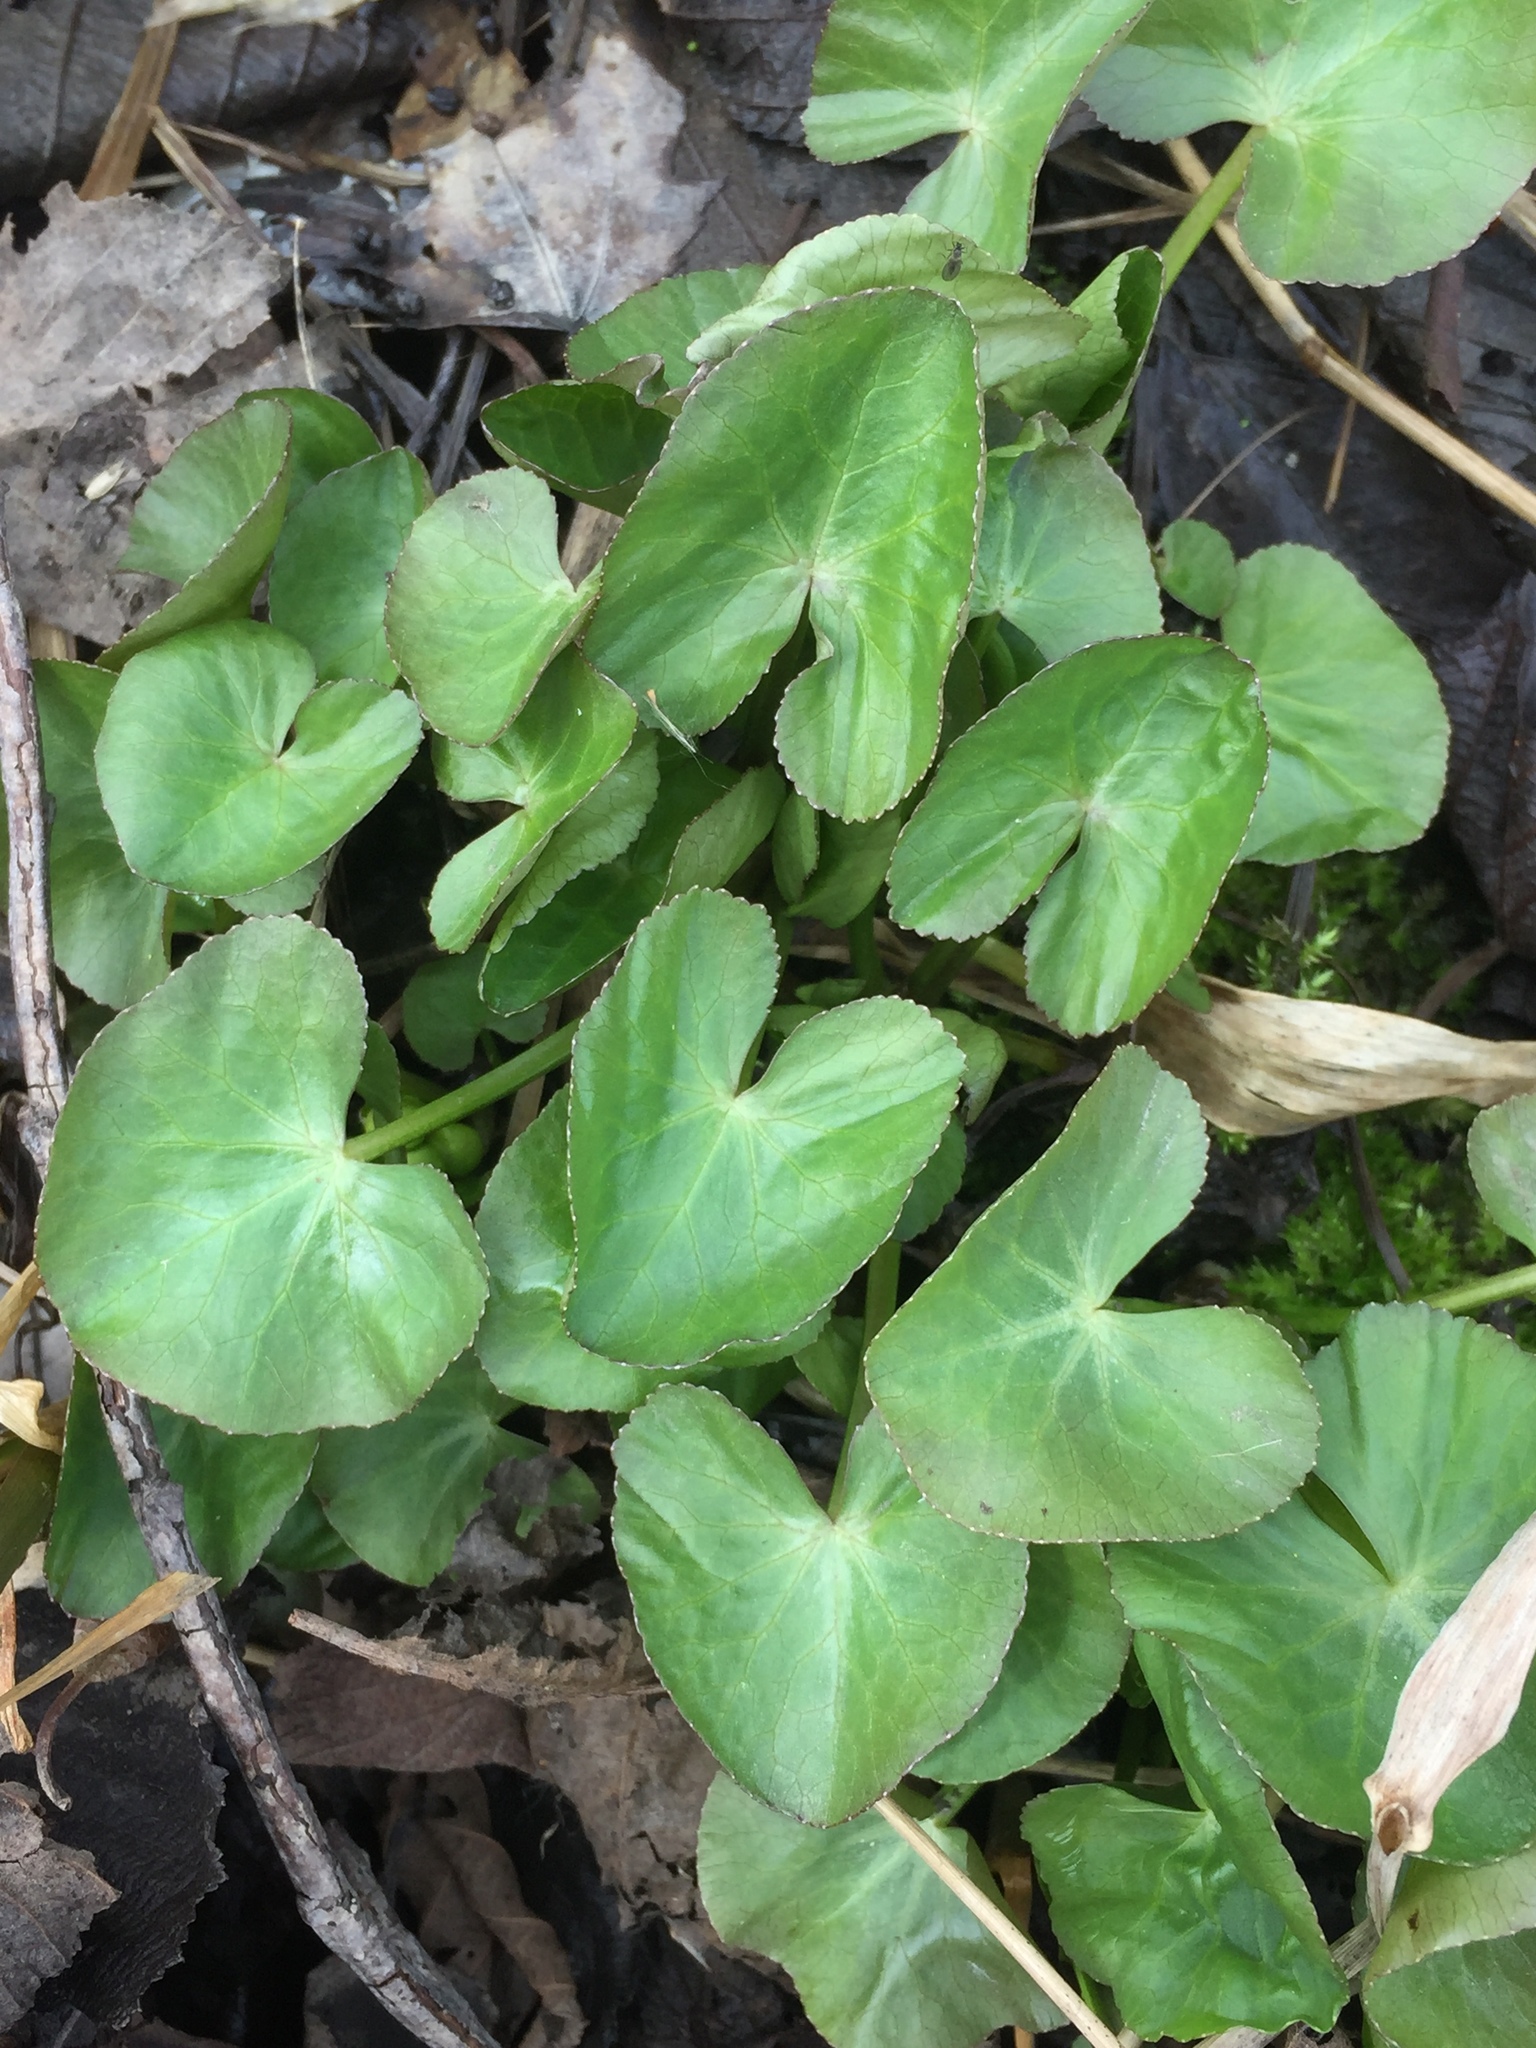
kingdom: Plantae
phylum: Tracheophyta
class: Magnoliopsida
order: Ranunculales
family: Ranunculaceae
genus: Caltha
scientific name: Caltha palustris
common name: Marsh marigold
